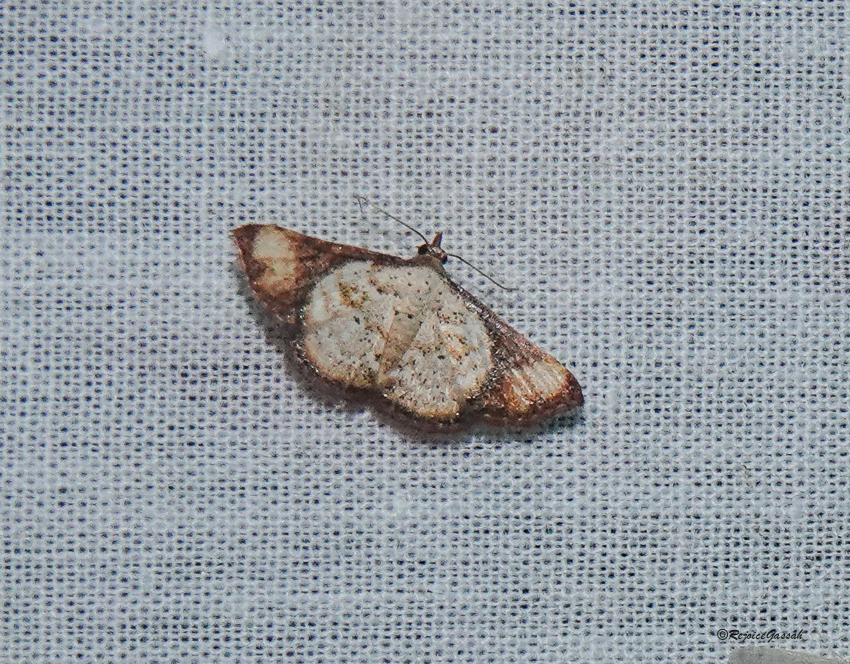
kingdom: Animalia
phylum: Arthropoda
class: Insecta
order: Lepidoptera
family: Erebidae
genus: Corgatha
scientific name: Corgatha atrimargo
